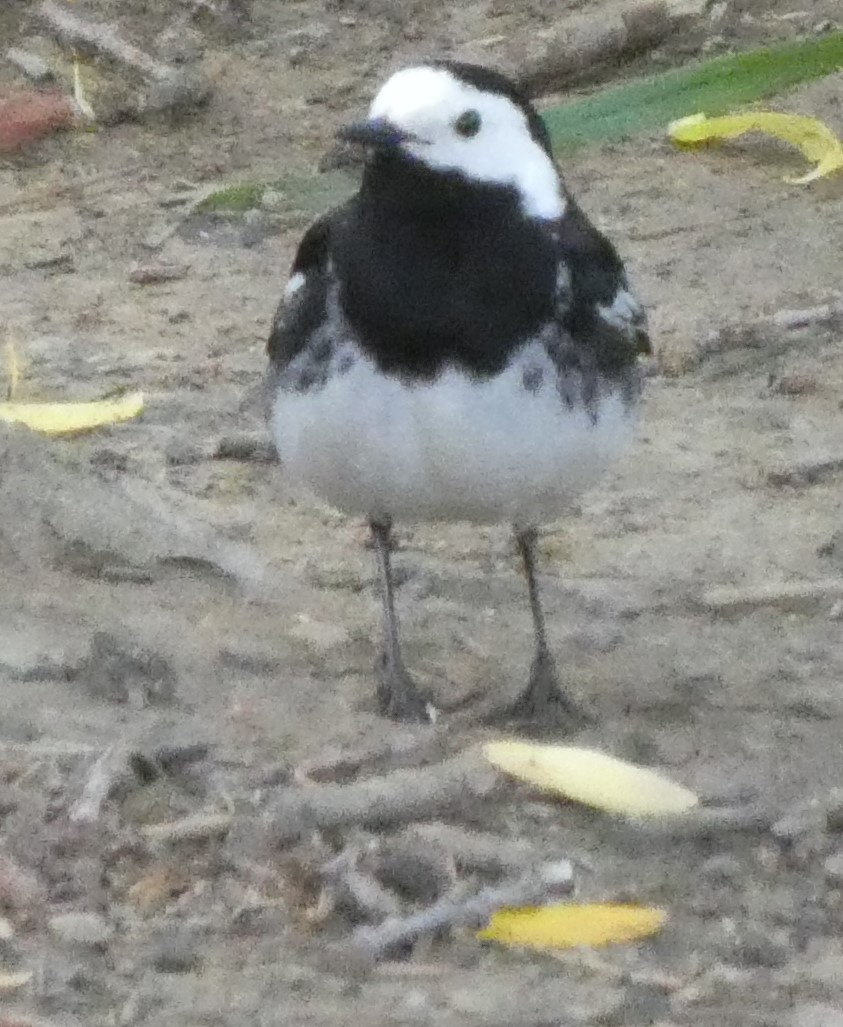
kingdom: Animalia
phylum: Chordata
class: Aves
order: Passeriformes
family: Motacillidae
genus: Motacilla
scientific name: Motacilla alba
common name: White wagtail
